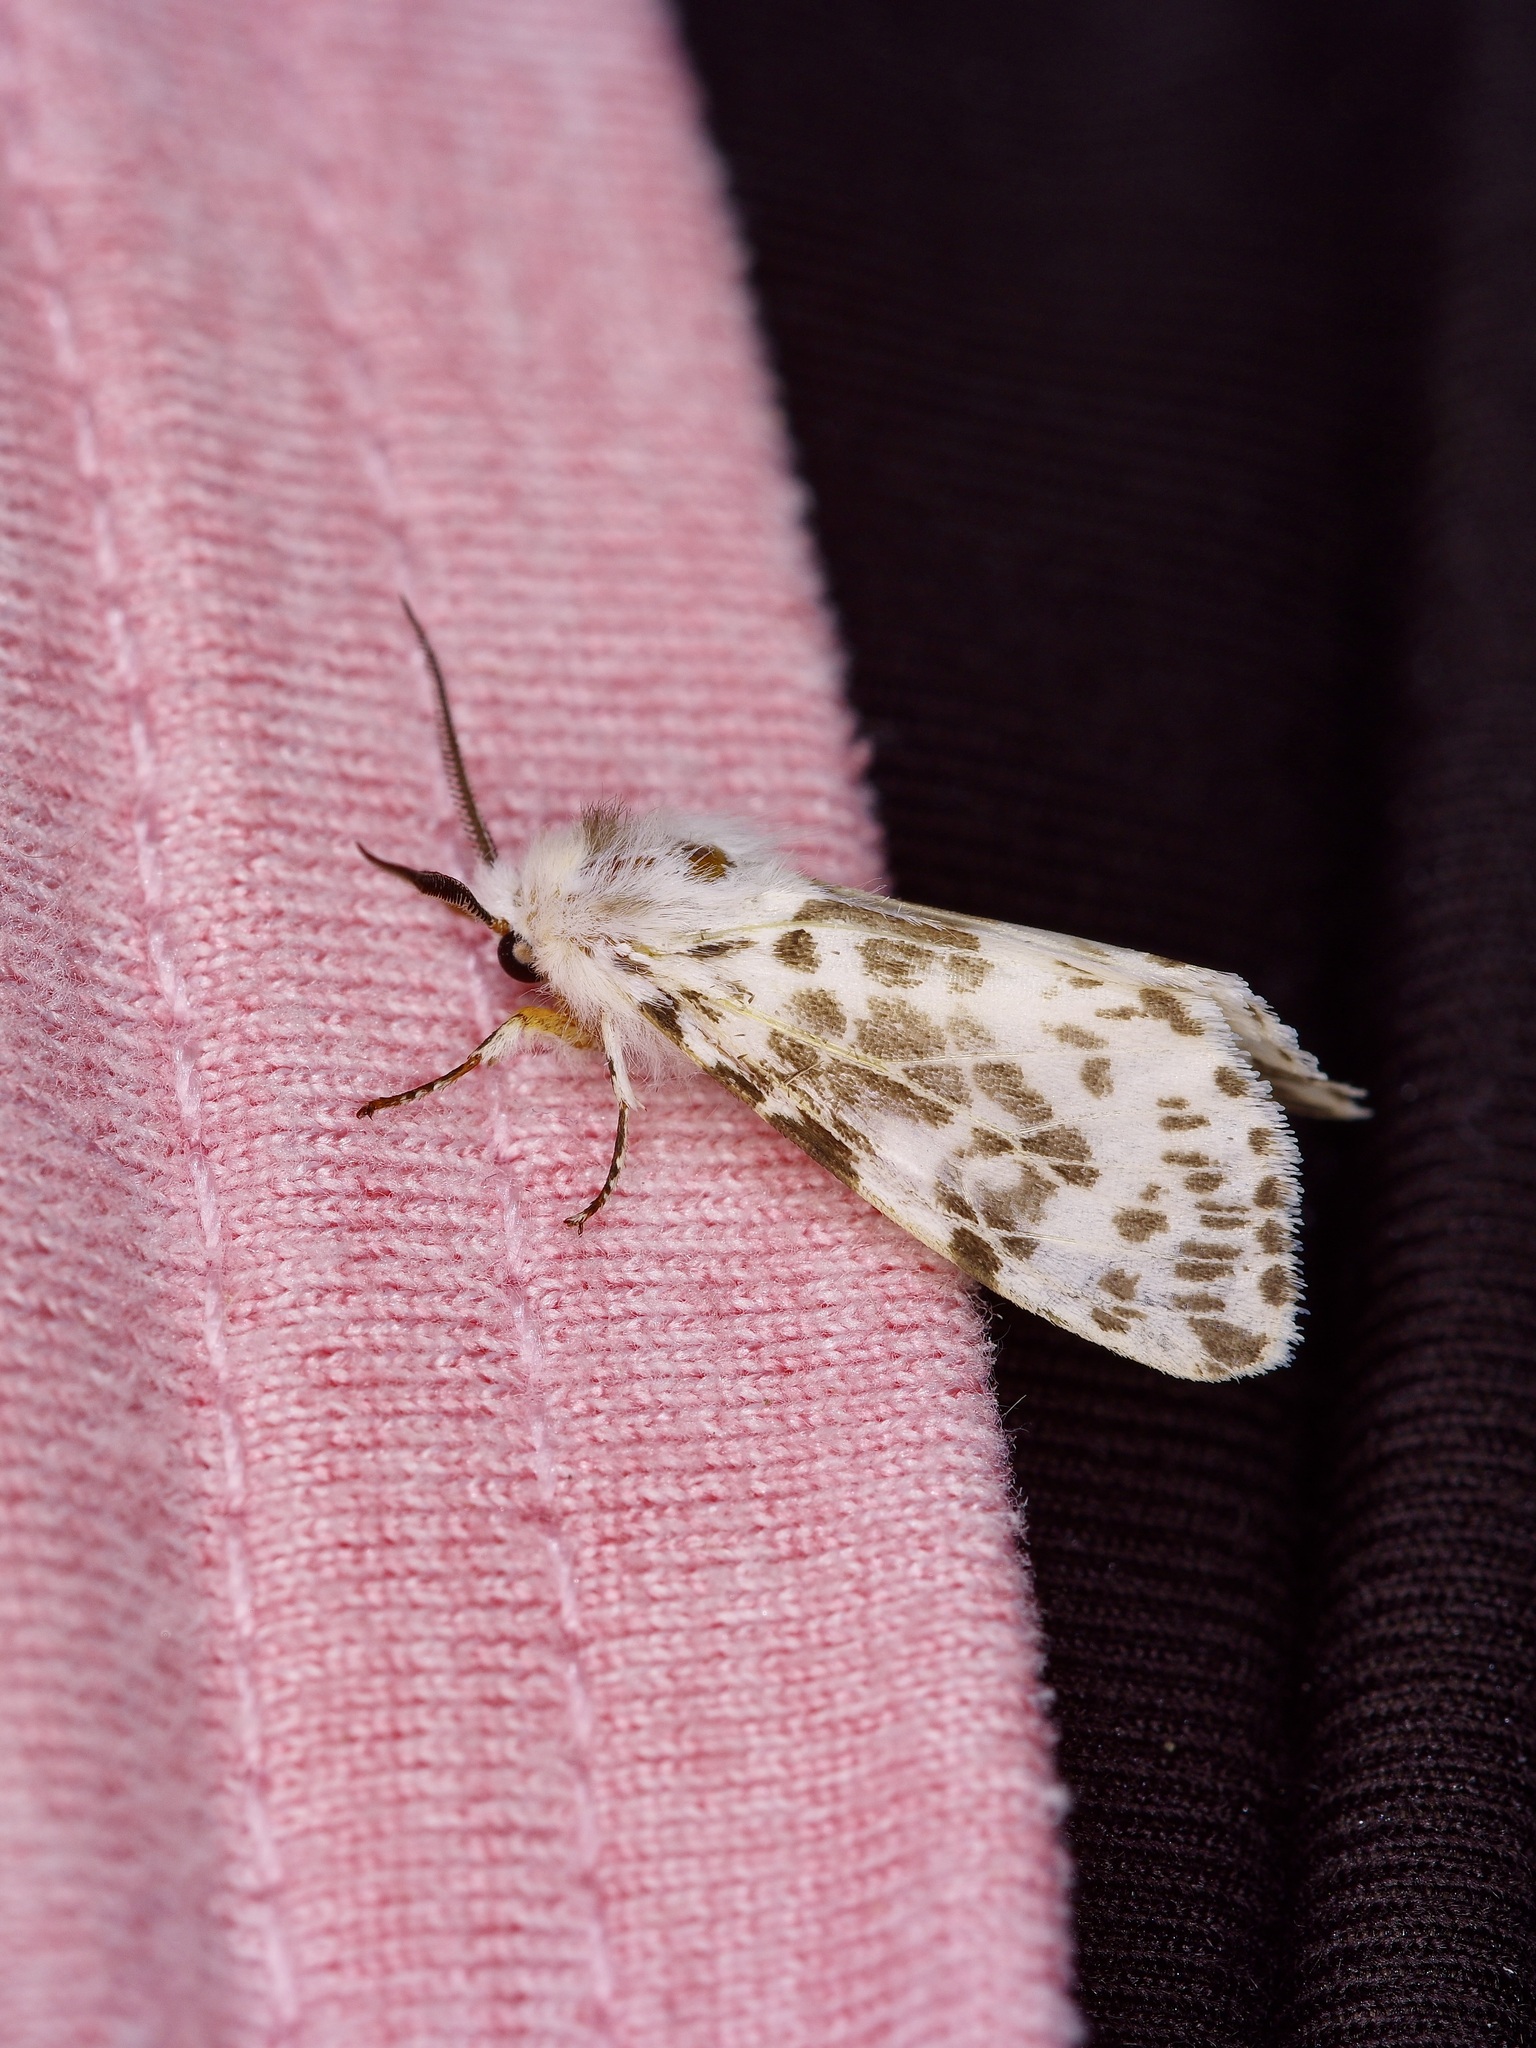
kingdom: Animalia
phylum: Arthropoda
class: Insecta
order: Lepidoptera
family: Erebidae
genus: Hyphantria
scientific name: Hyphantria cunea
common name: American white moth
